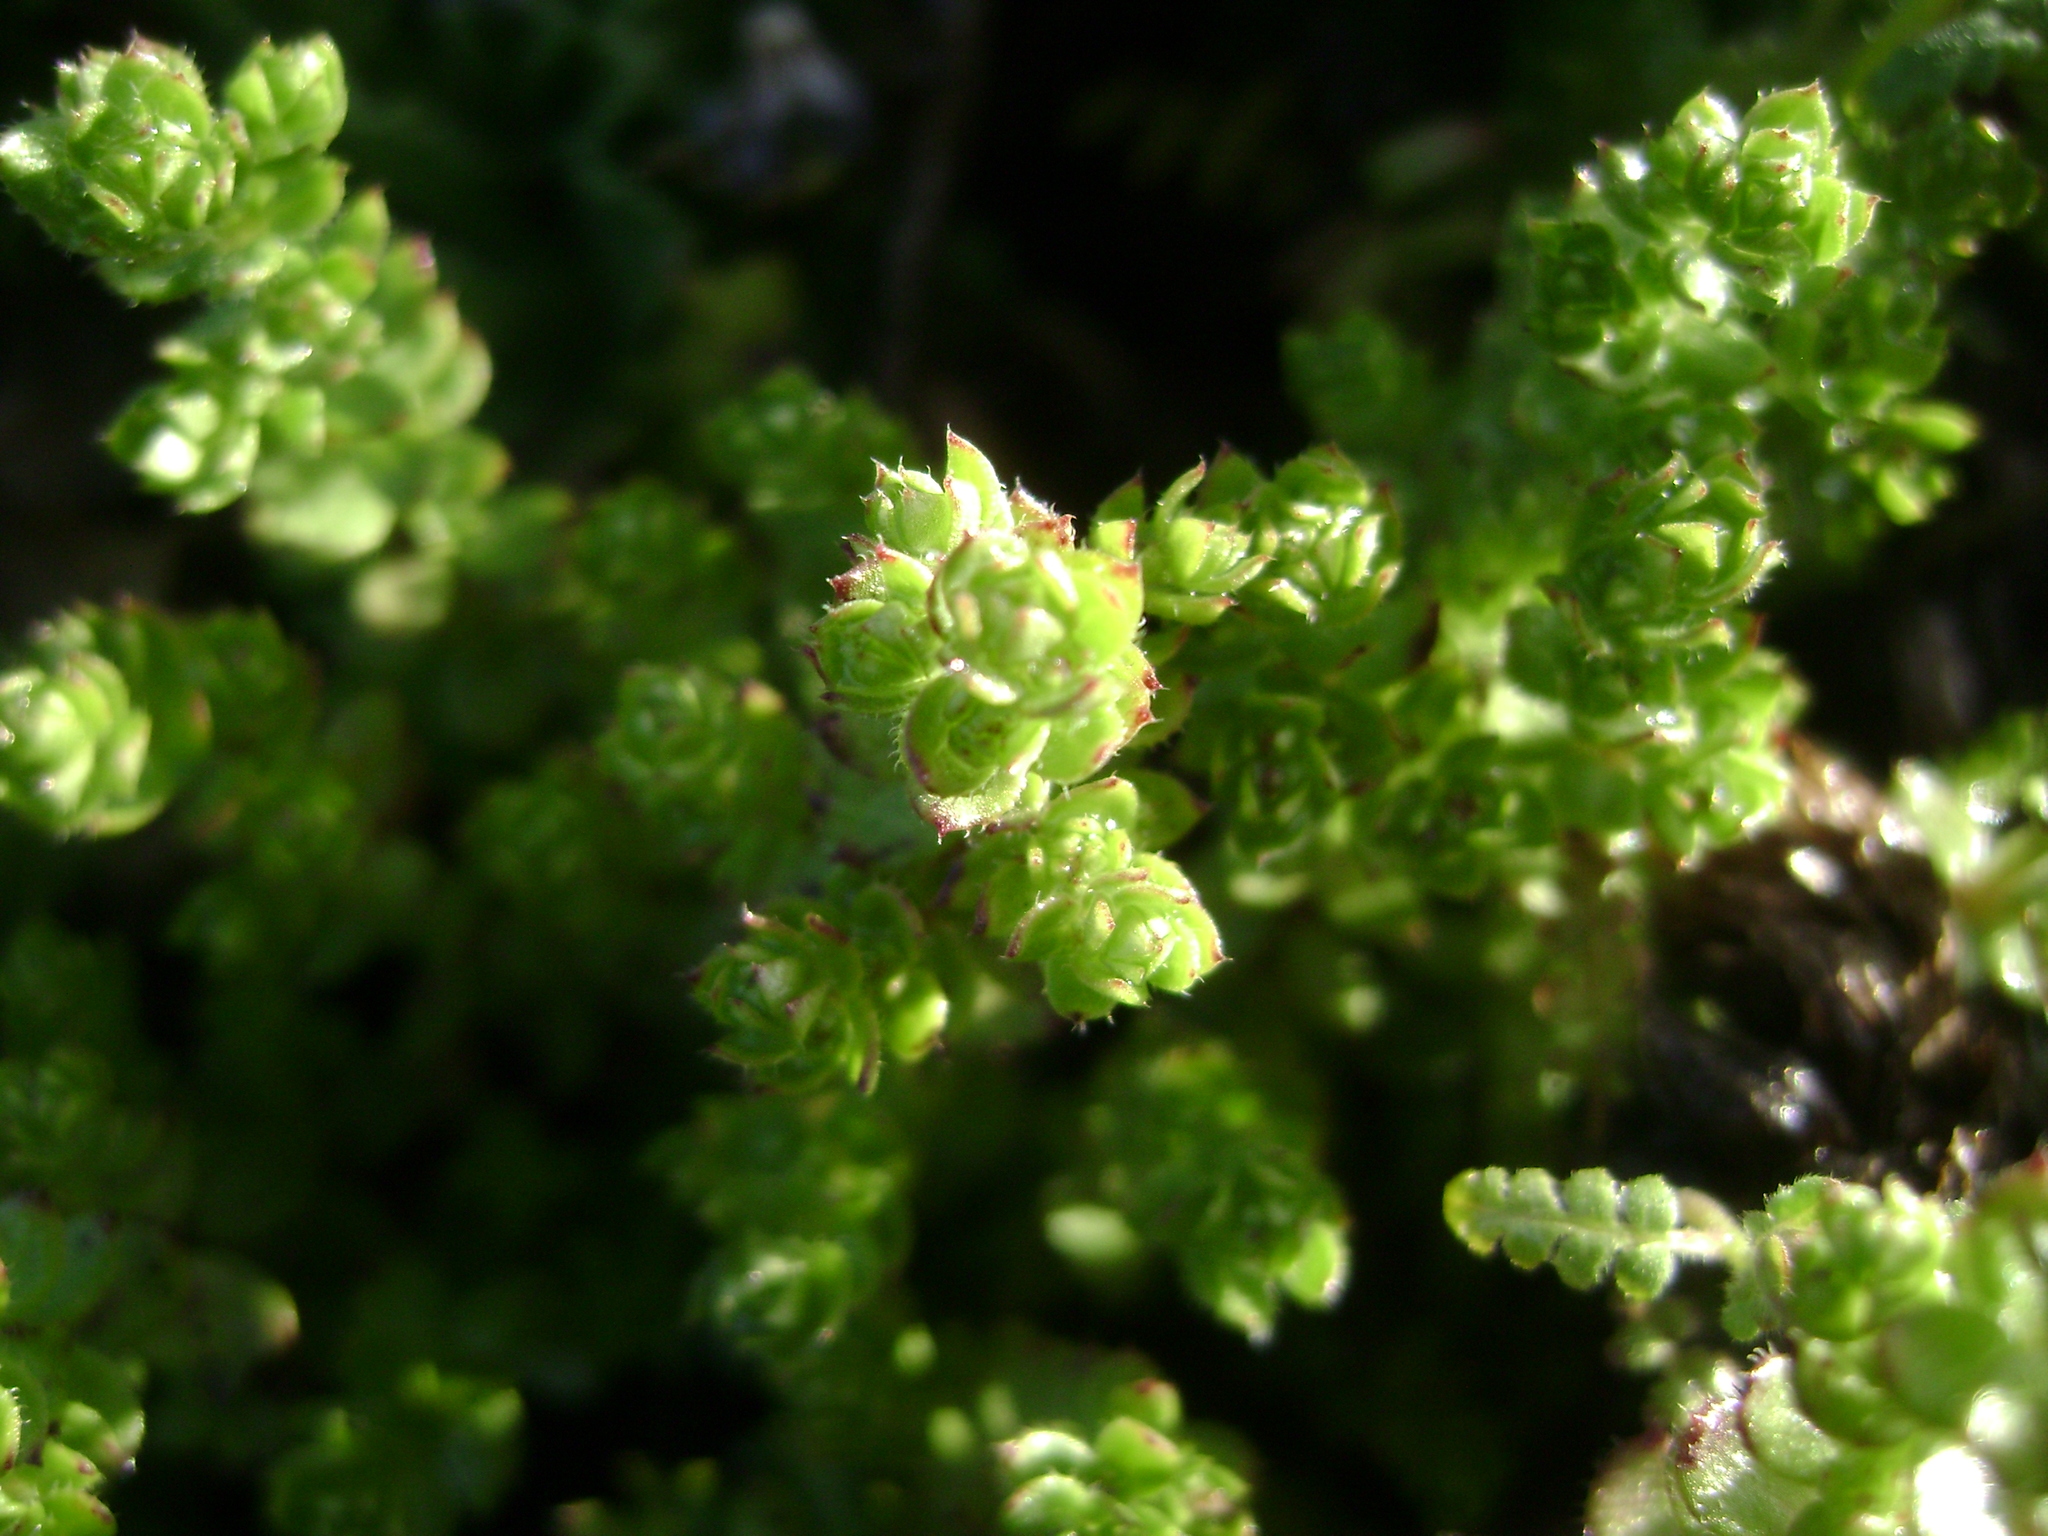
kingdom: Plantae
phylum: Tracheophyta
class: Magnoliopsida
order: Gentianales
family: Rubiaceae
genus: Galium
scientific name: Galium californicum
